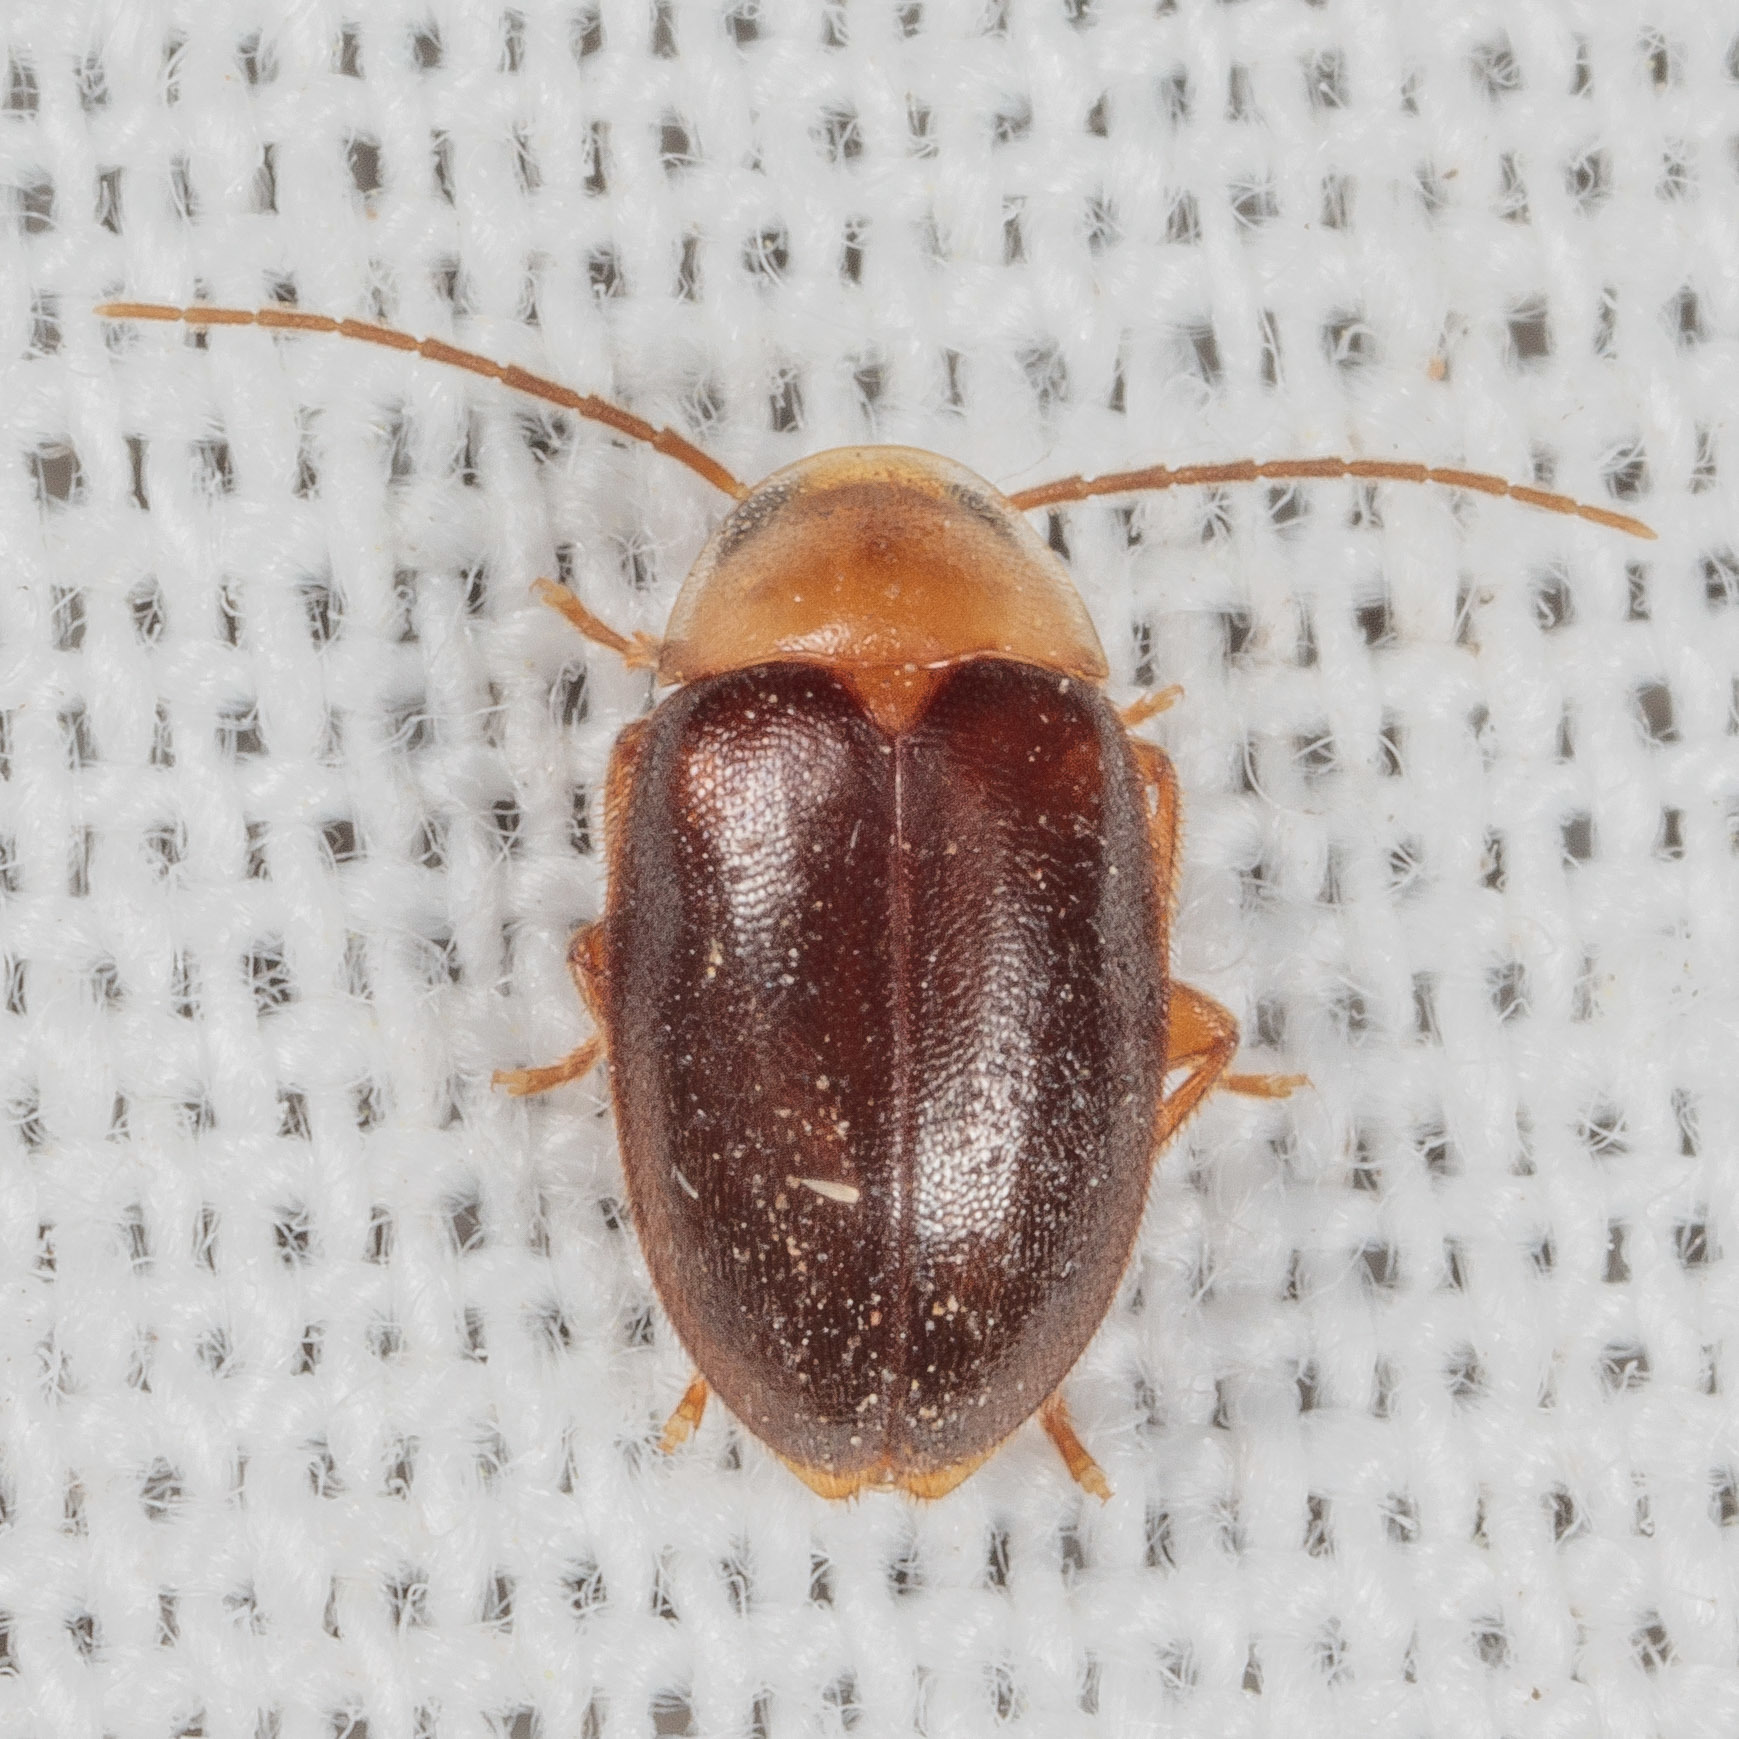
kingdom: Animalia
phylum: Arthropoda
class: Insecta
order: Coleoptera
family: Scirtidae
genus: Sacodes
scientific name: Sacodes pulchella
